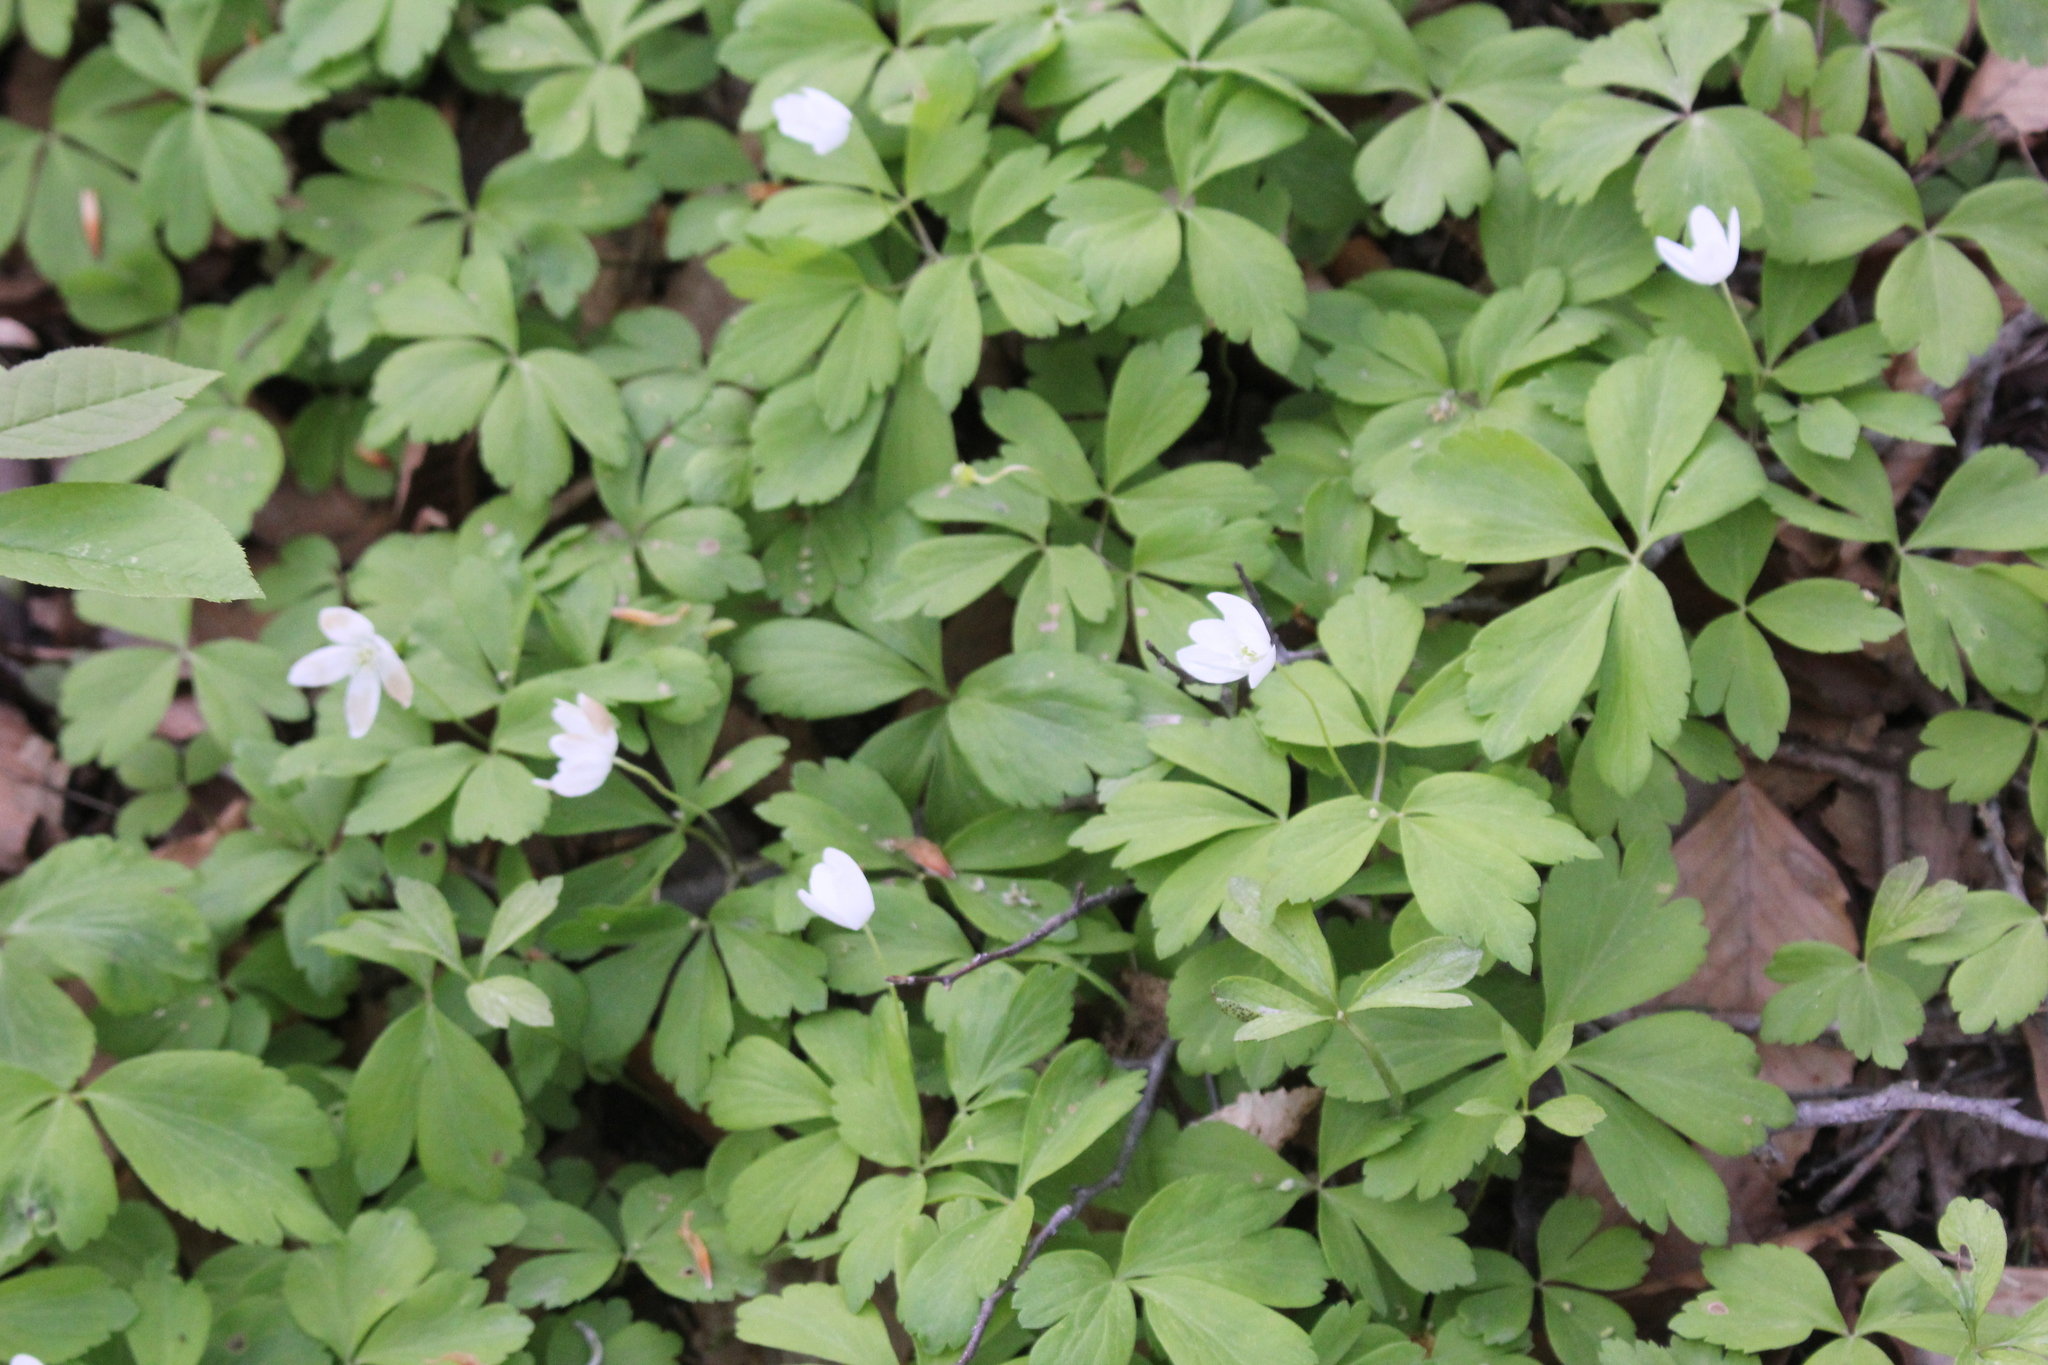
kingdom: Plantae
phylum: Tracheophyta
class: Magnoliopsida
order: Ranunculales
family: Ranunculaceae
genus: Anemone
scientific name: Anemone quinquefolia
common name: Wood anemone
